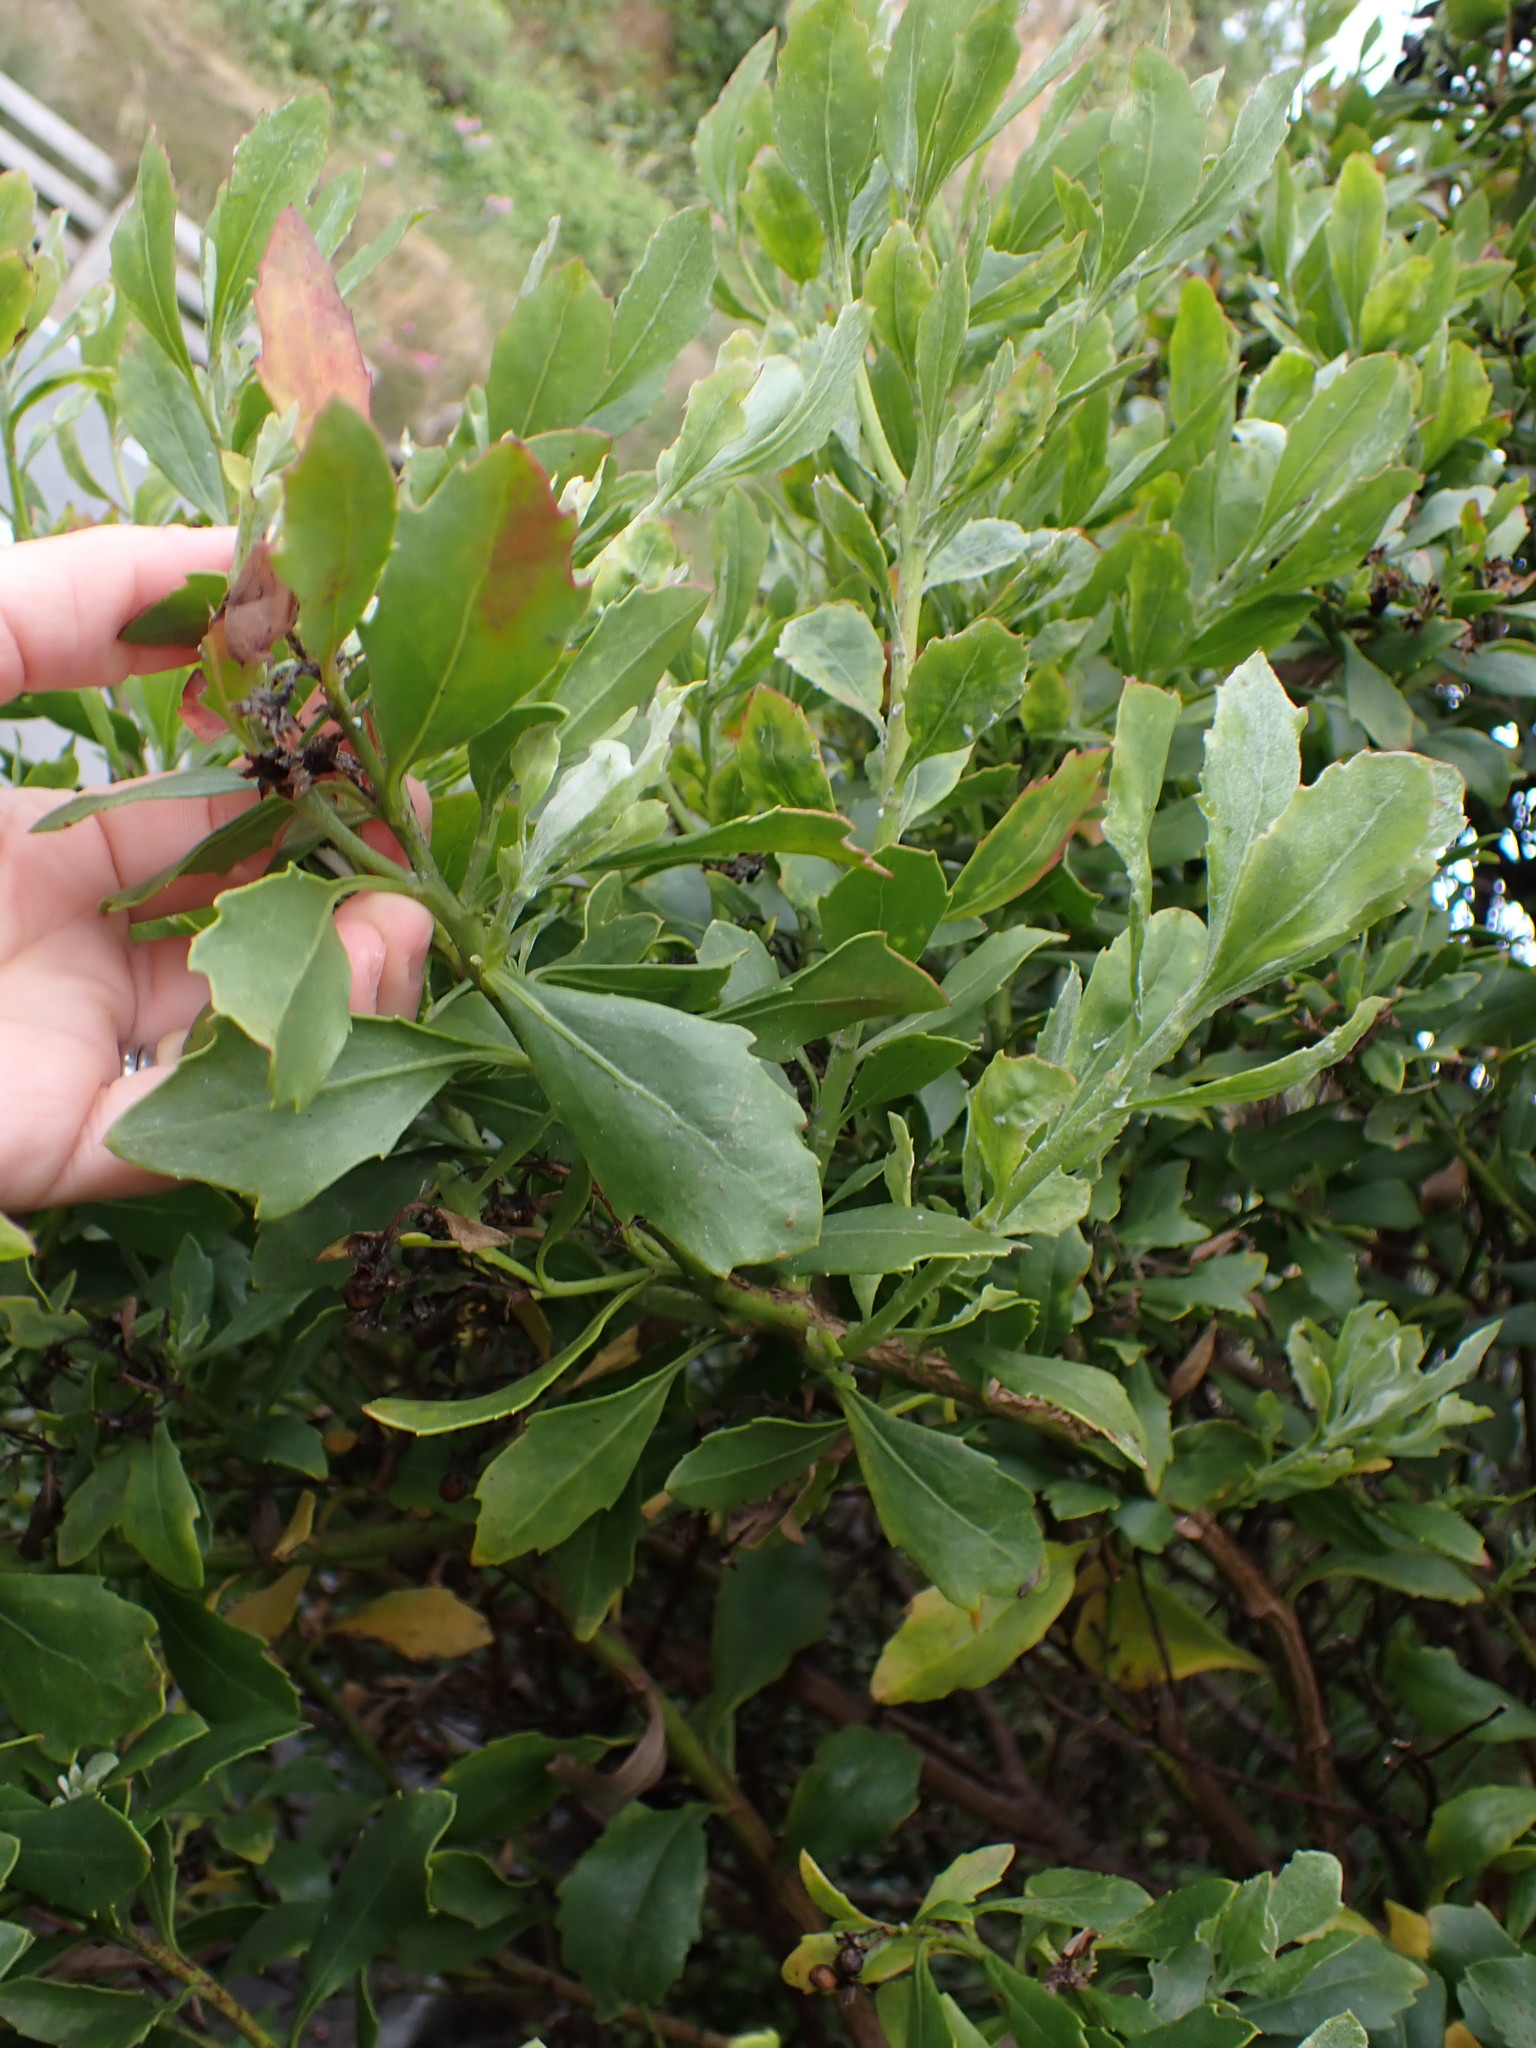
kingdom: Plantae
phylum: Tracheophyta
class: Magnoliopsida
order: Asterales
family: Asteraceae
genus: Osteospermum
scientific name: Osteospermum moniliferum
